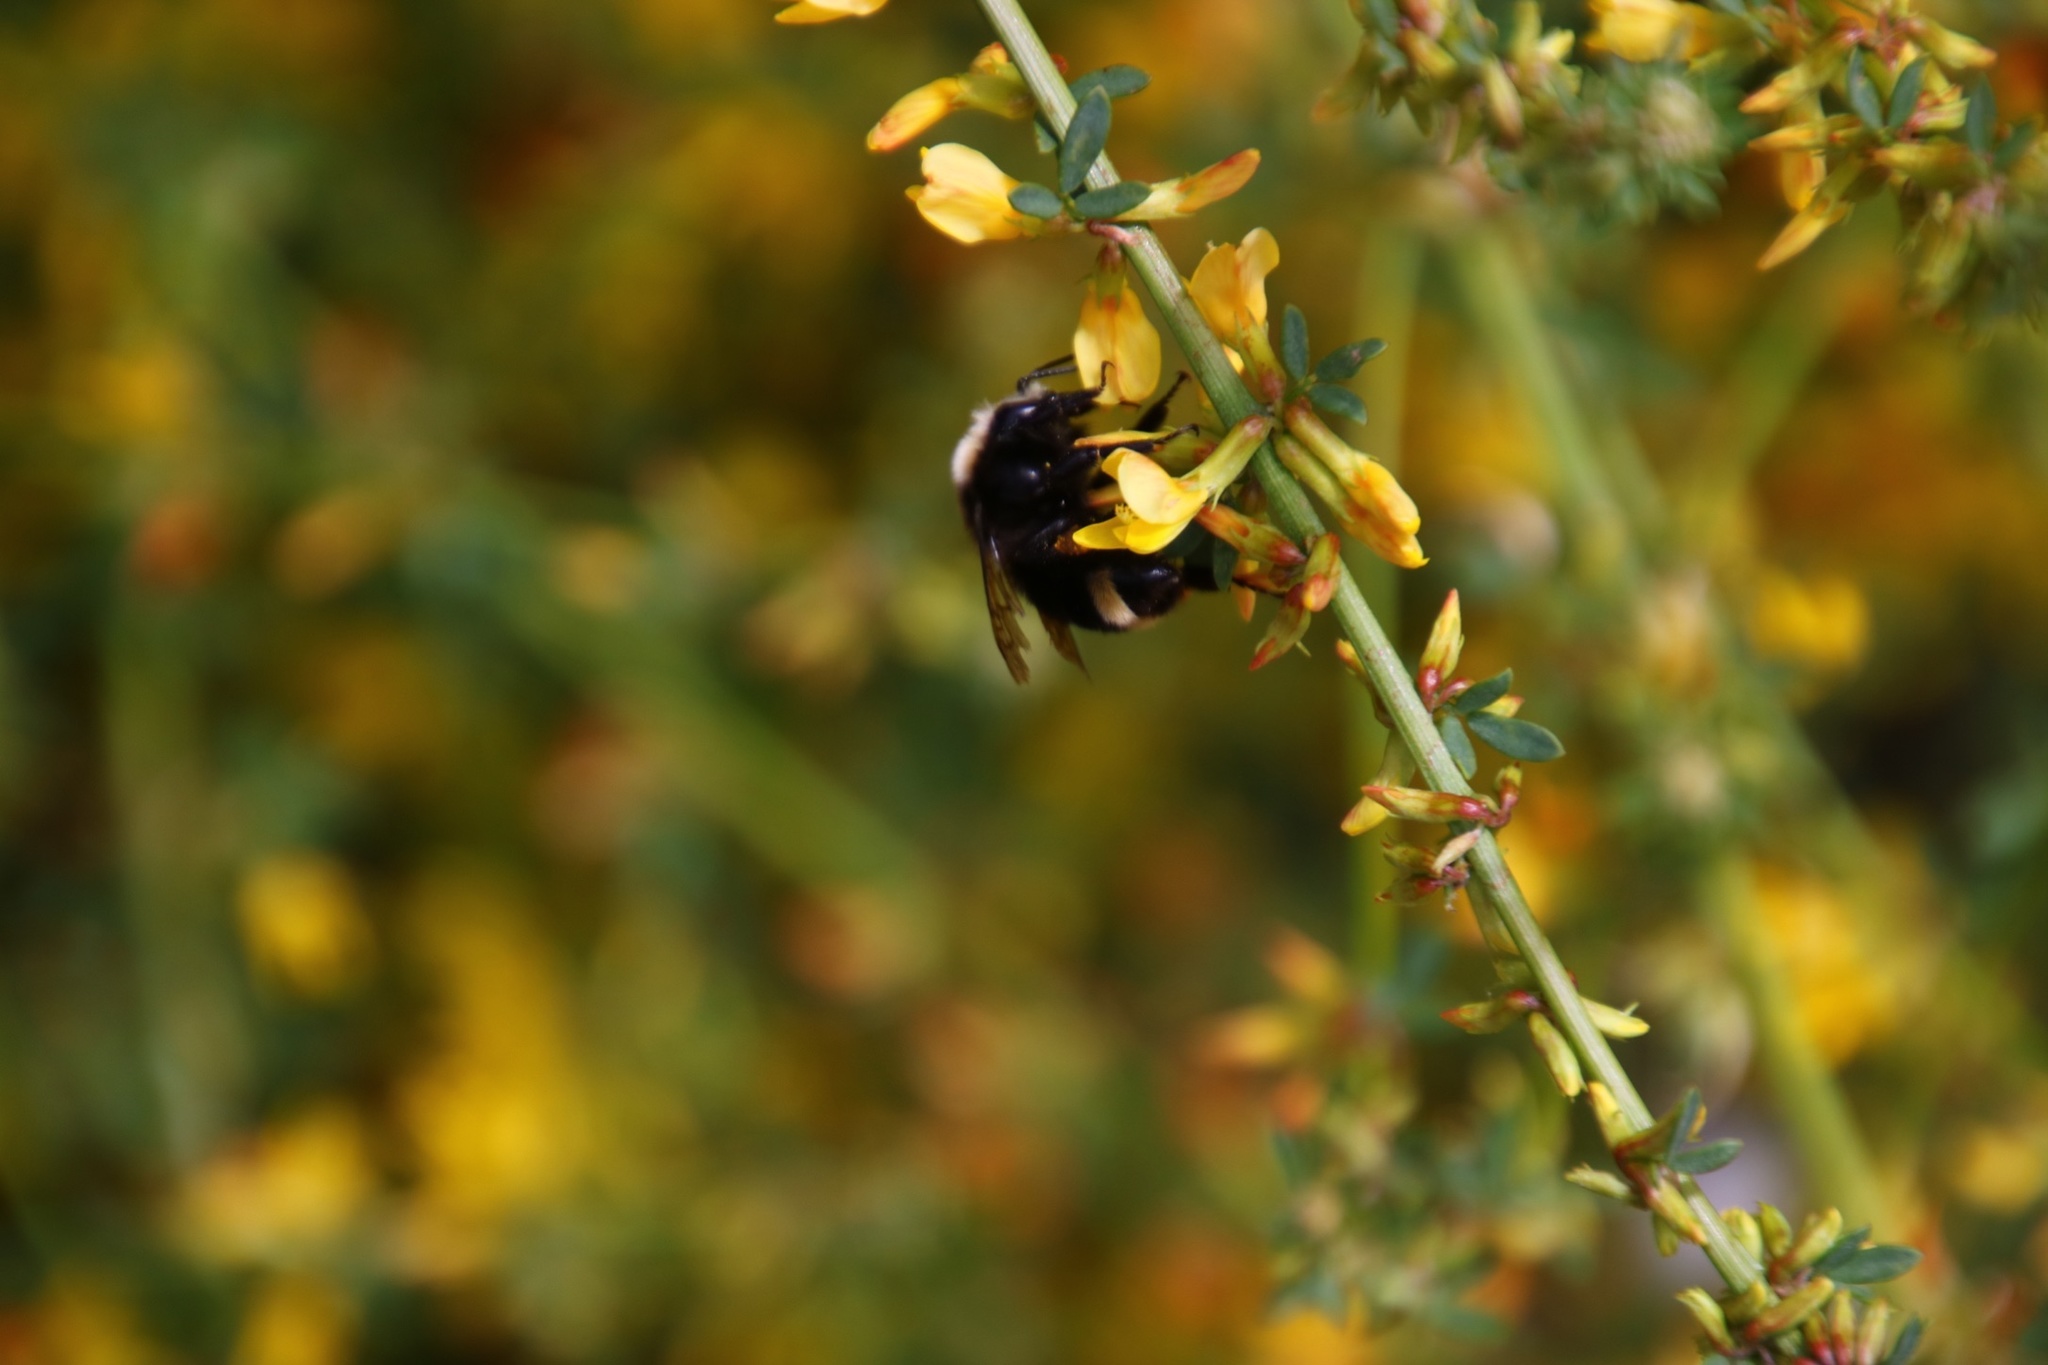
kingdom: Animalia
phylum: Arthropoda
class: Insecta
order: Hymenoptera
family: Apidae
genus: Bombus
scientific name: Bombus vosnesenskii
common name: Vosnesensky bumble bee
